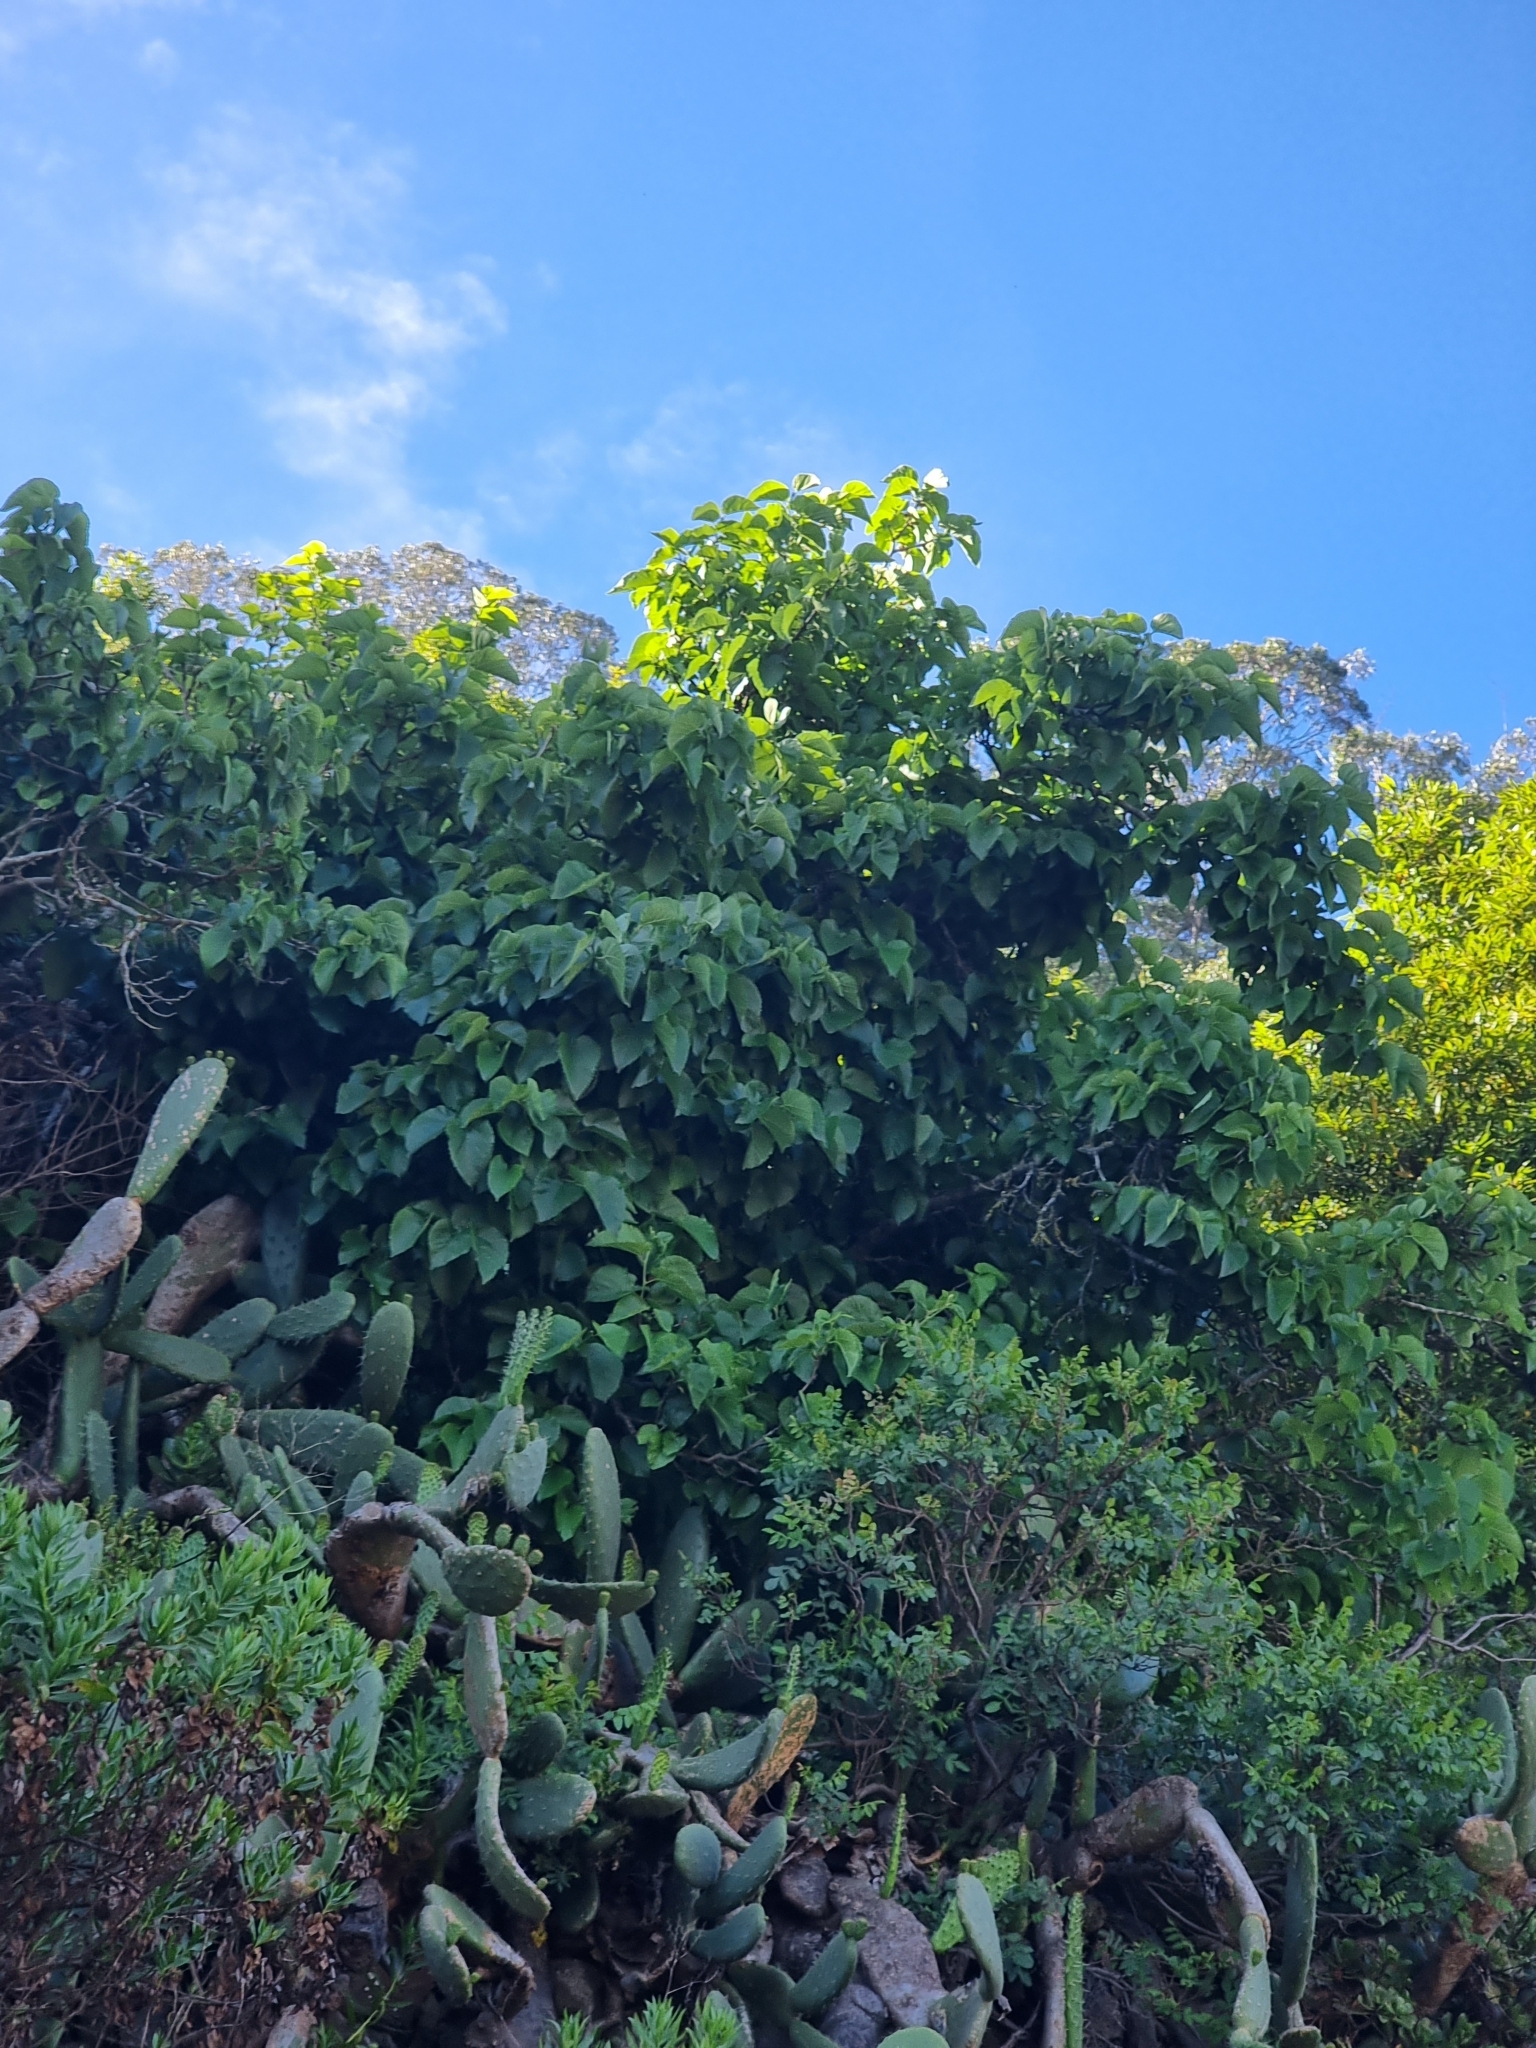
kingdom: Plantae
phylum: Tracheophyta
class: Magnoliopsida
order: Rosales
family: Moraceae
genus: Morus
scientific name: Morus rubra
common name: Red mulberry
